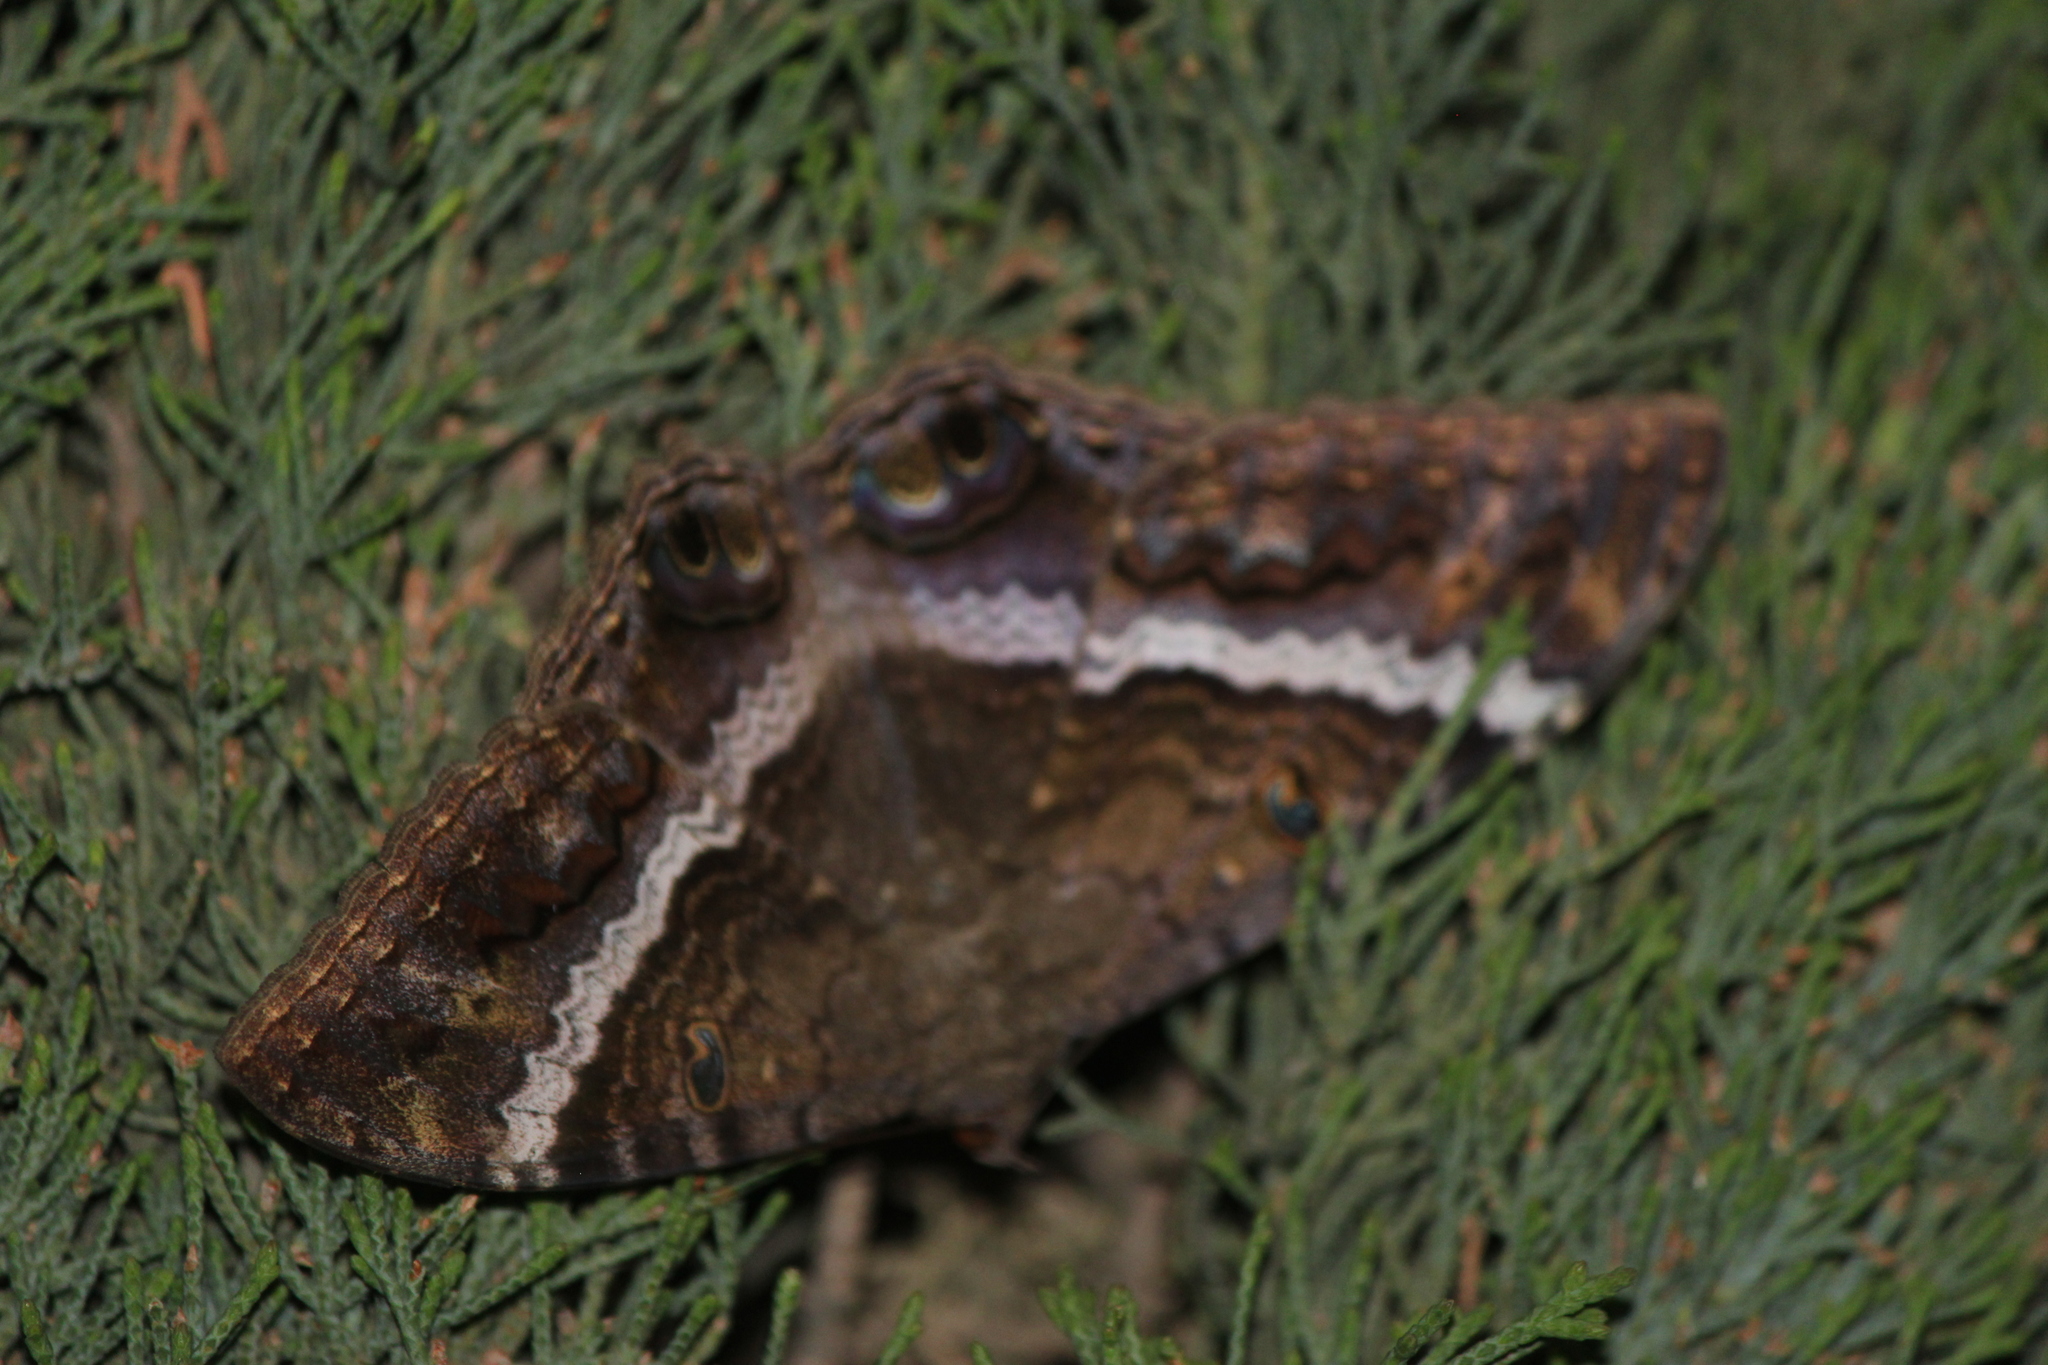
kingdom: Animalia
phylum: Arthropoda
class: Insecta
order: Lepidoptera
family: Erebidae
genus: Ascalapha
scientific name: Ascalapha odorata
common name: Black witch
